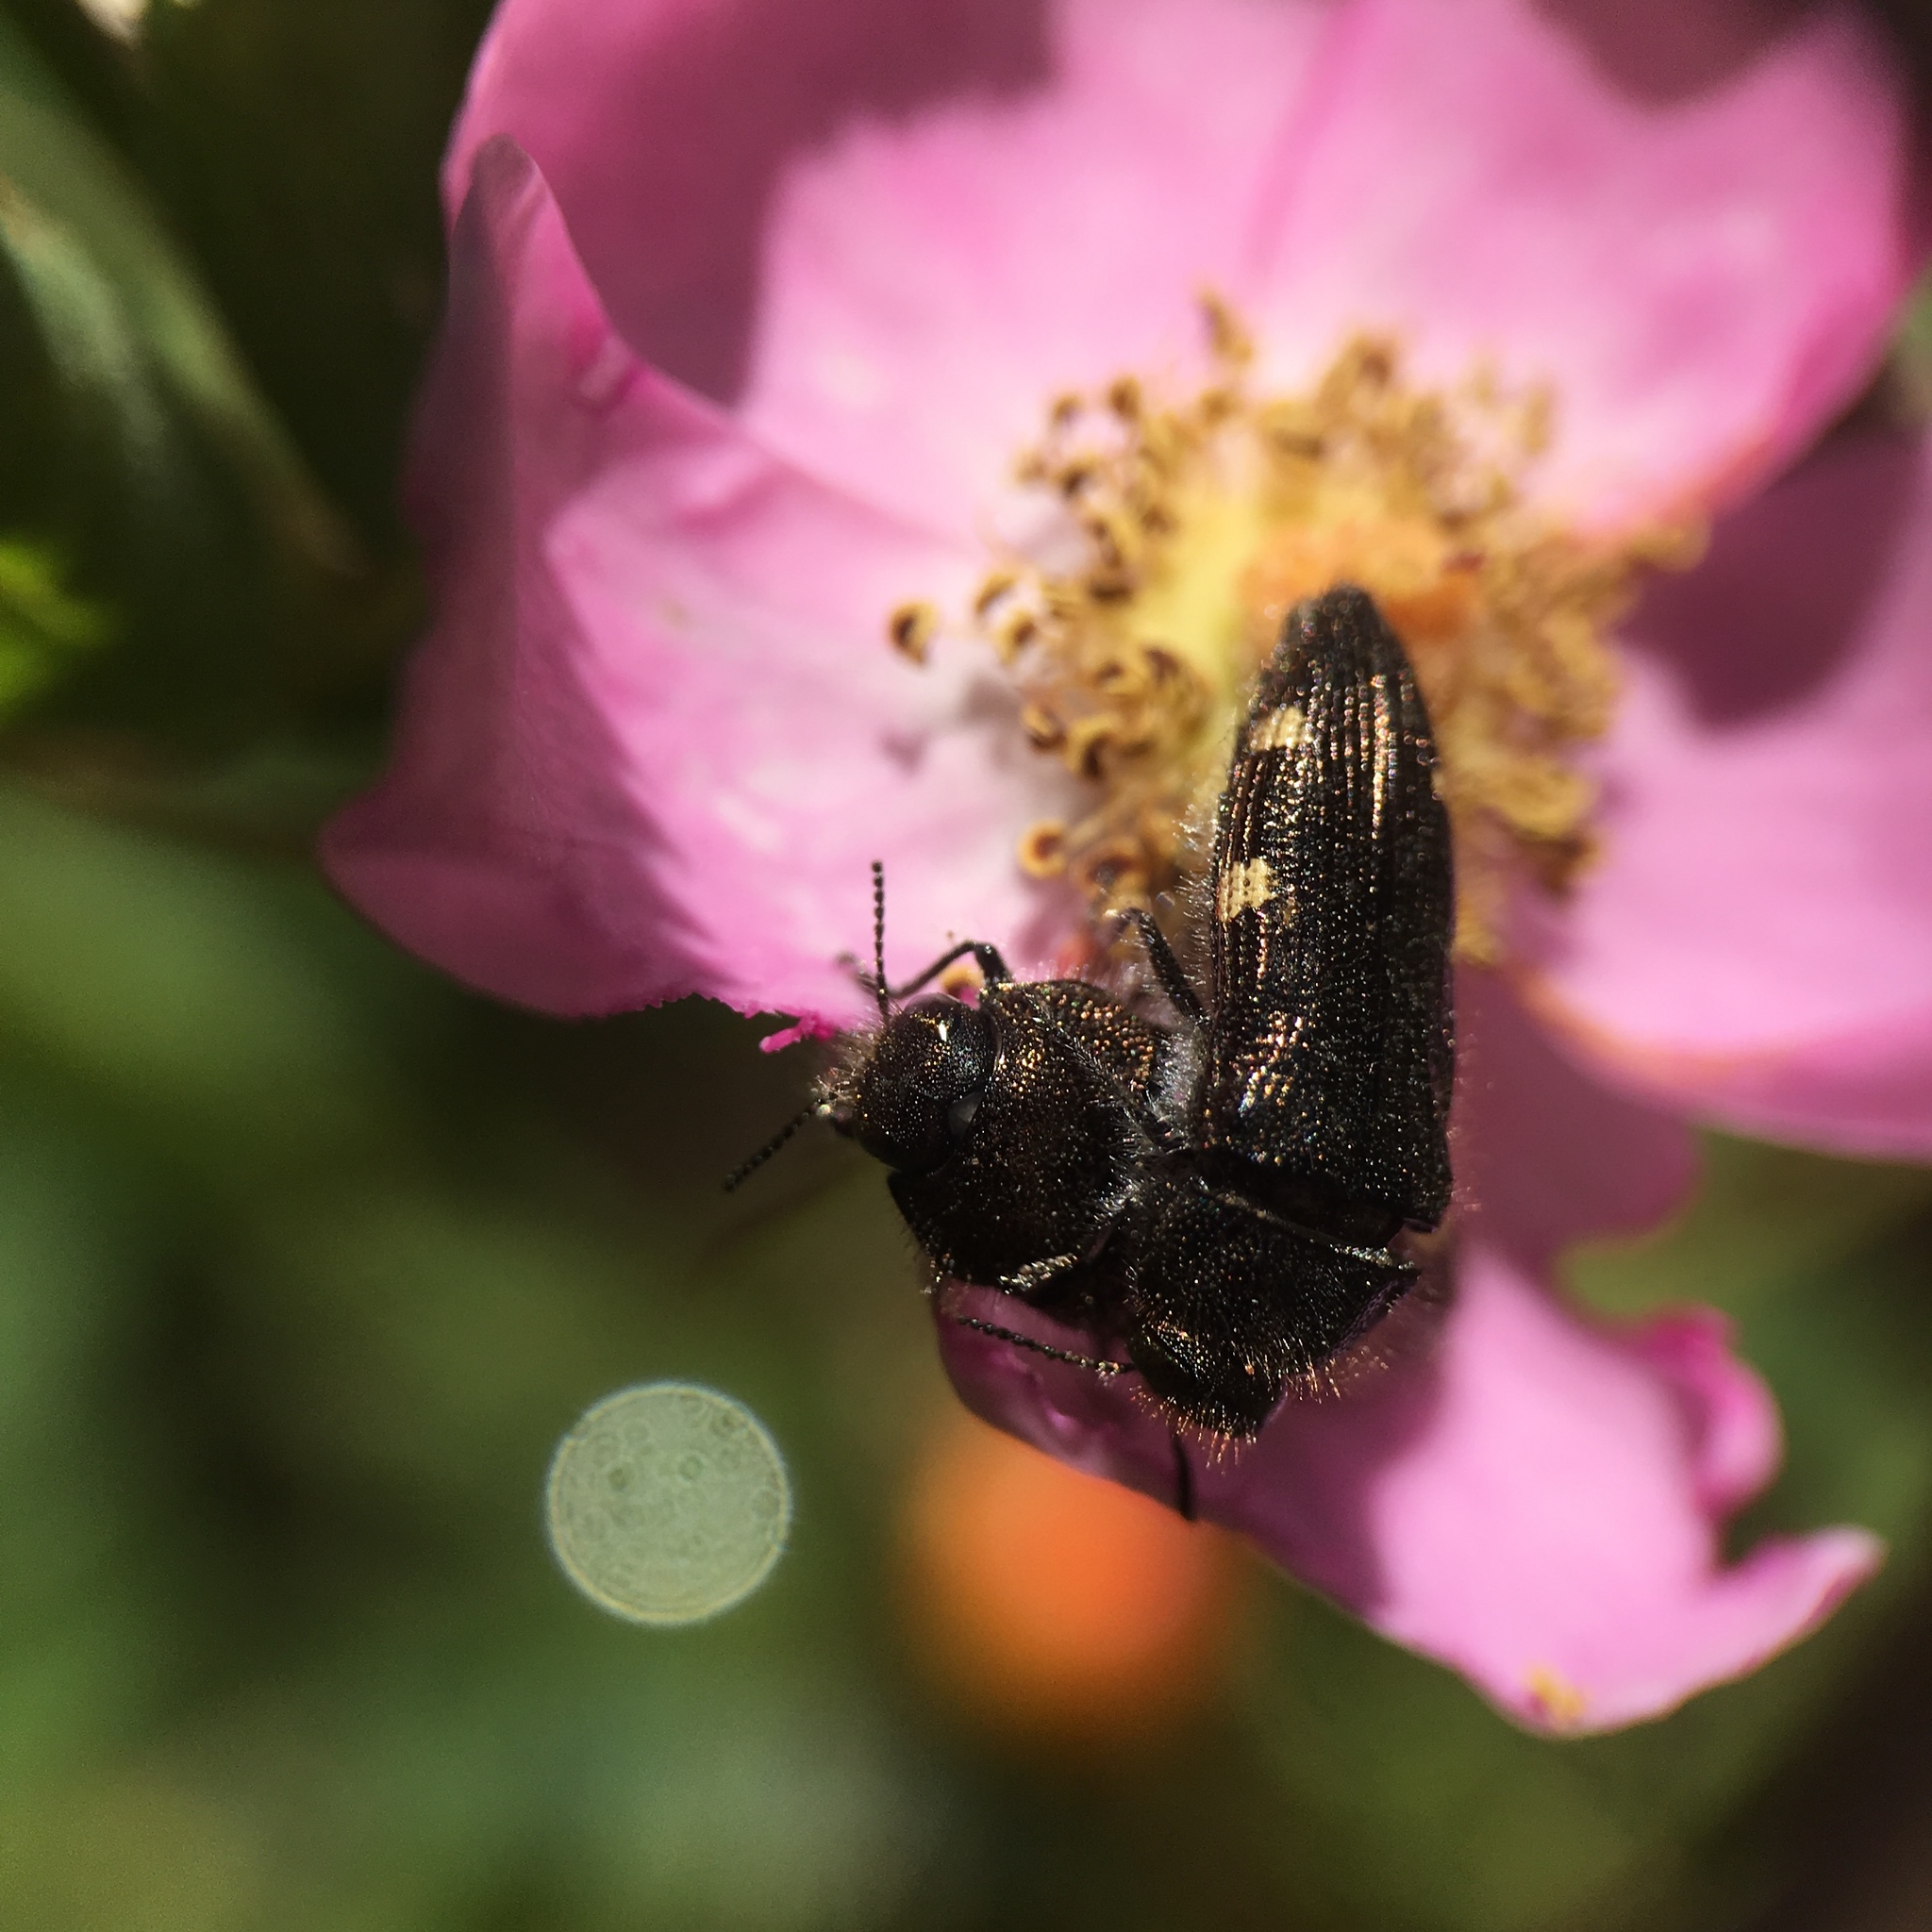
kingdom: Animalia
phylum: Arthropoda
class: Insecta
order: Coleoptera
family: Buprestidae
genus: Acmaeodera
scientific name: Acmaeodera prorsa
